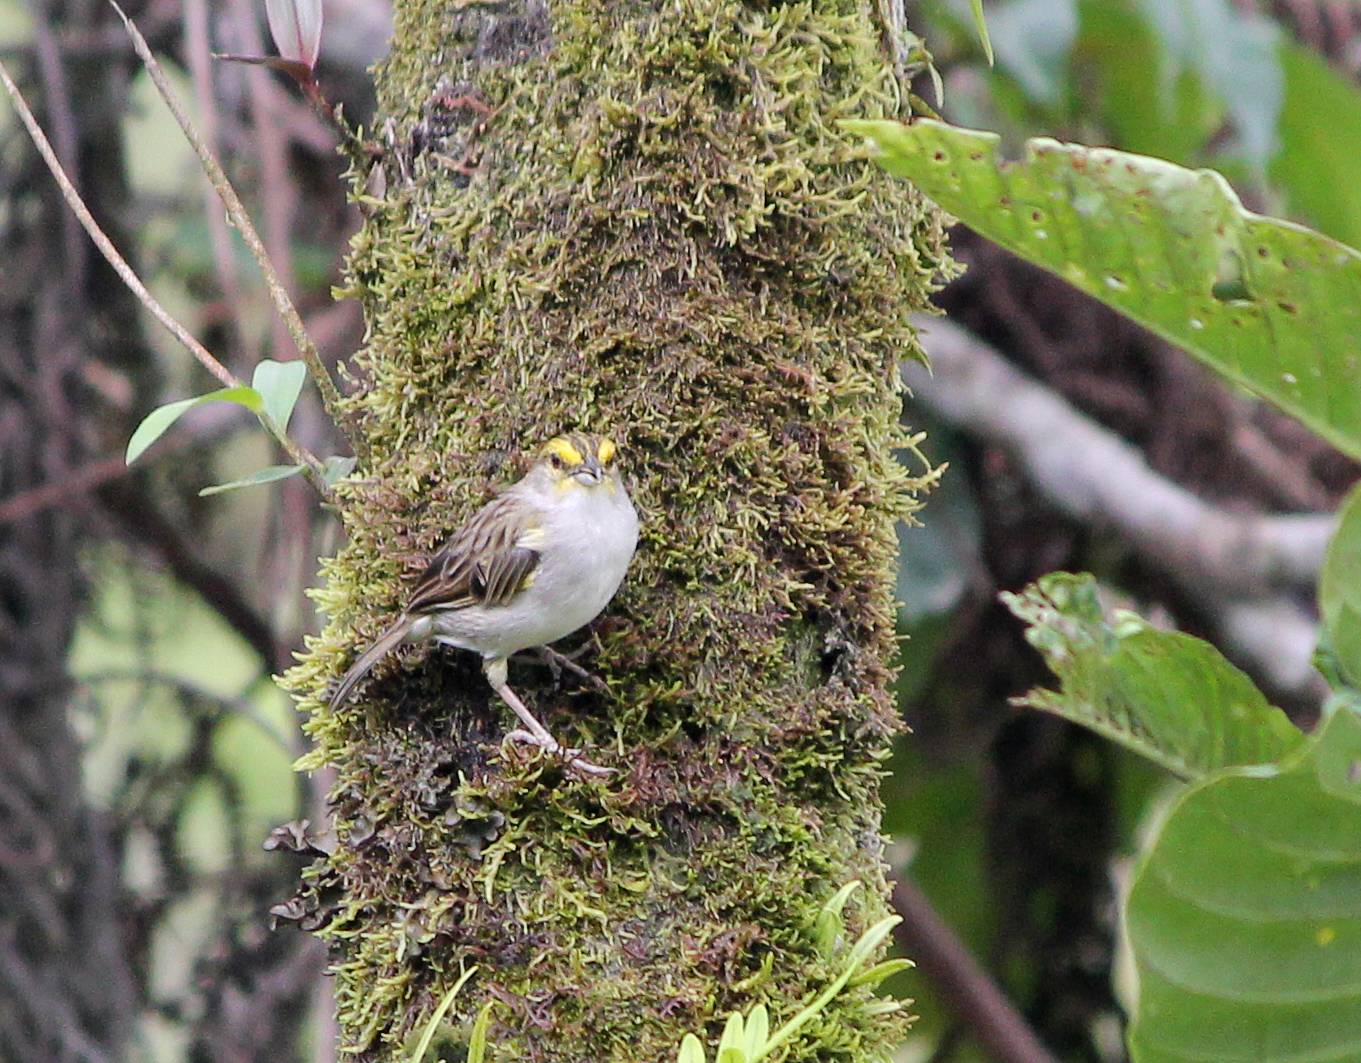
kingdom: Animalia
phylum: Chordata
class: Aves
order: Passeriformes
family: Passerellidae
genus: Ammodramus
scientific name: Ammodramus aurifrons
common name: Yellow-browed sparrow
